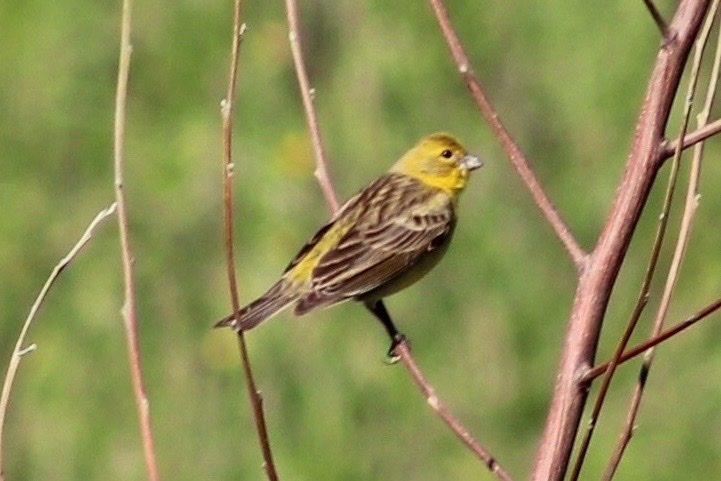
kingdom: Animalia
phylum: Chordata
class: Aves
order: Passeriformes
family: Thraupidae
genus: Sicalis
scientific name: Sicalis luteola
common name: Grassland yellow-finch
